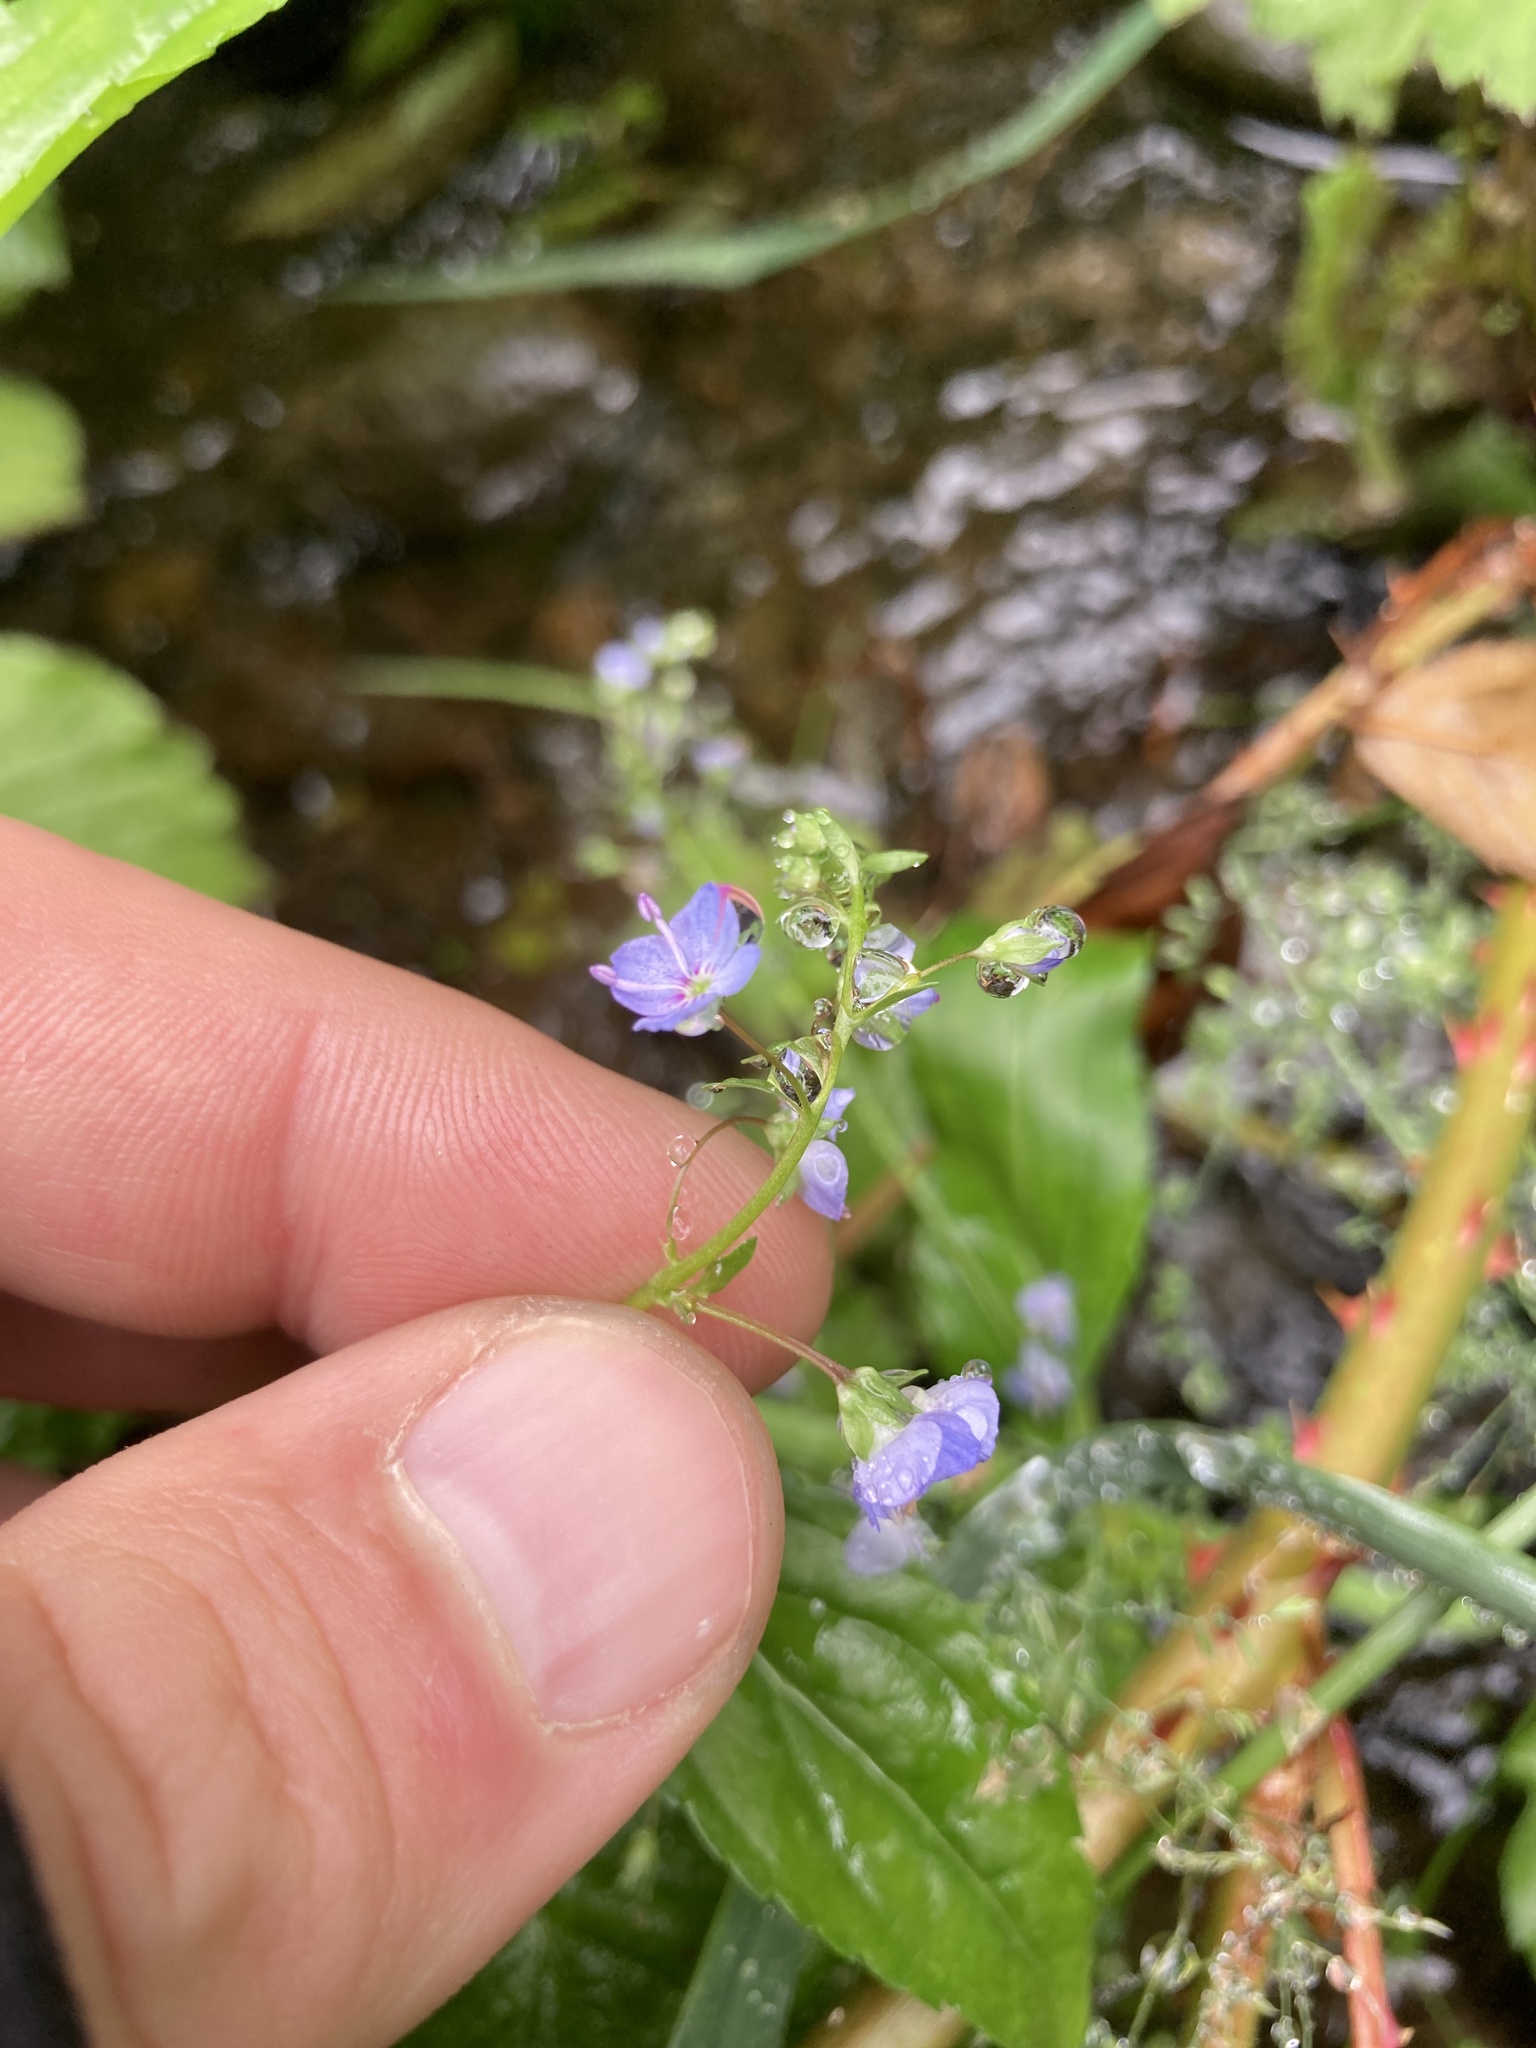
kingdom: Plantae
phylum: Tracheophyta
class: Magnoliopsida
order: Lamiales
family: Plantaginaceae
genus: Veronica
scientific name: Veronica americana
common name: American brooklime
